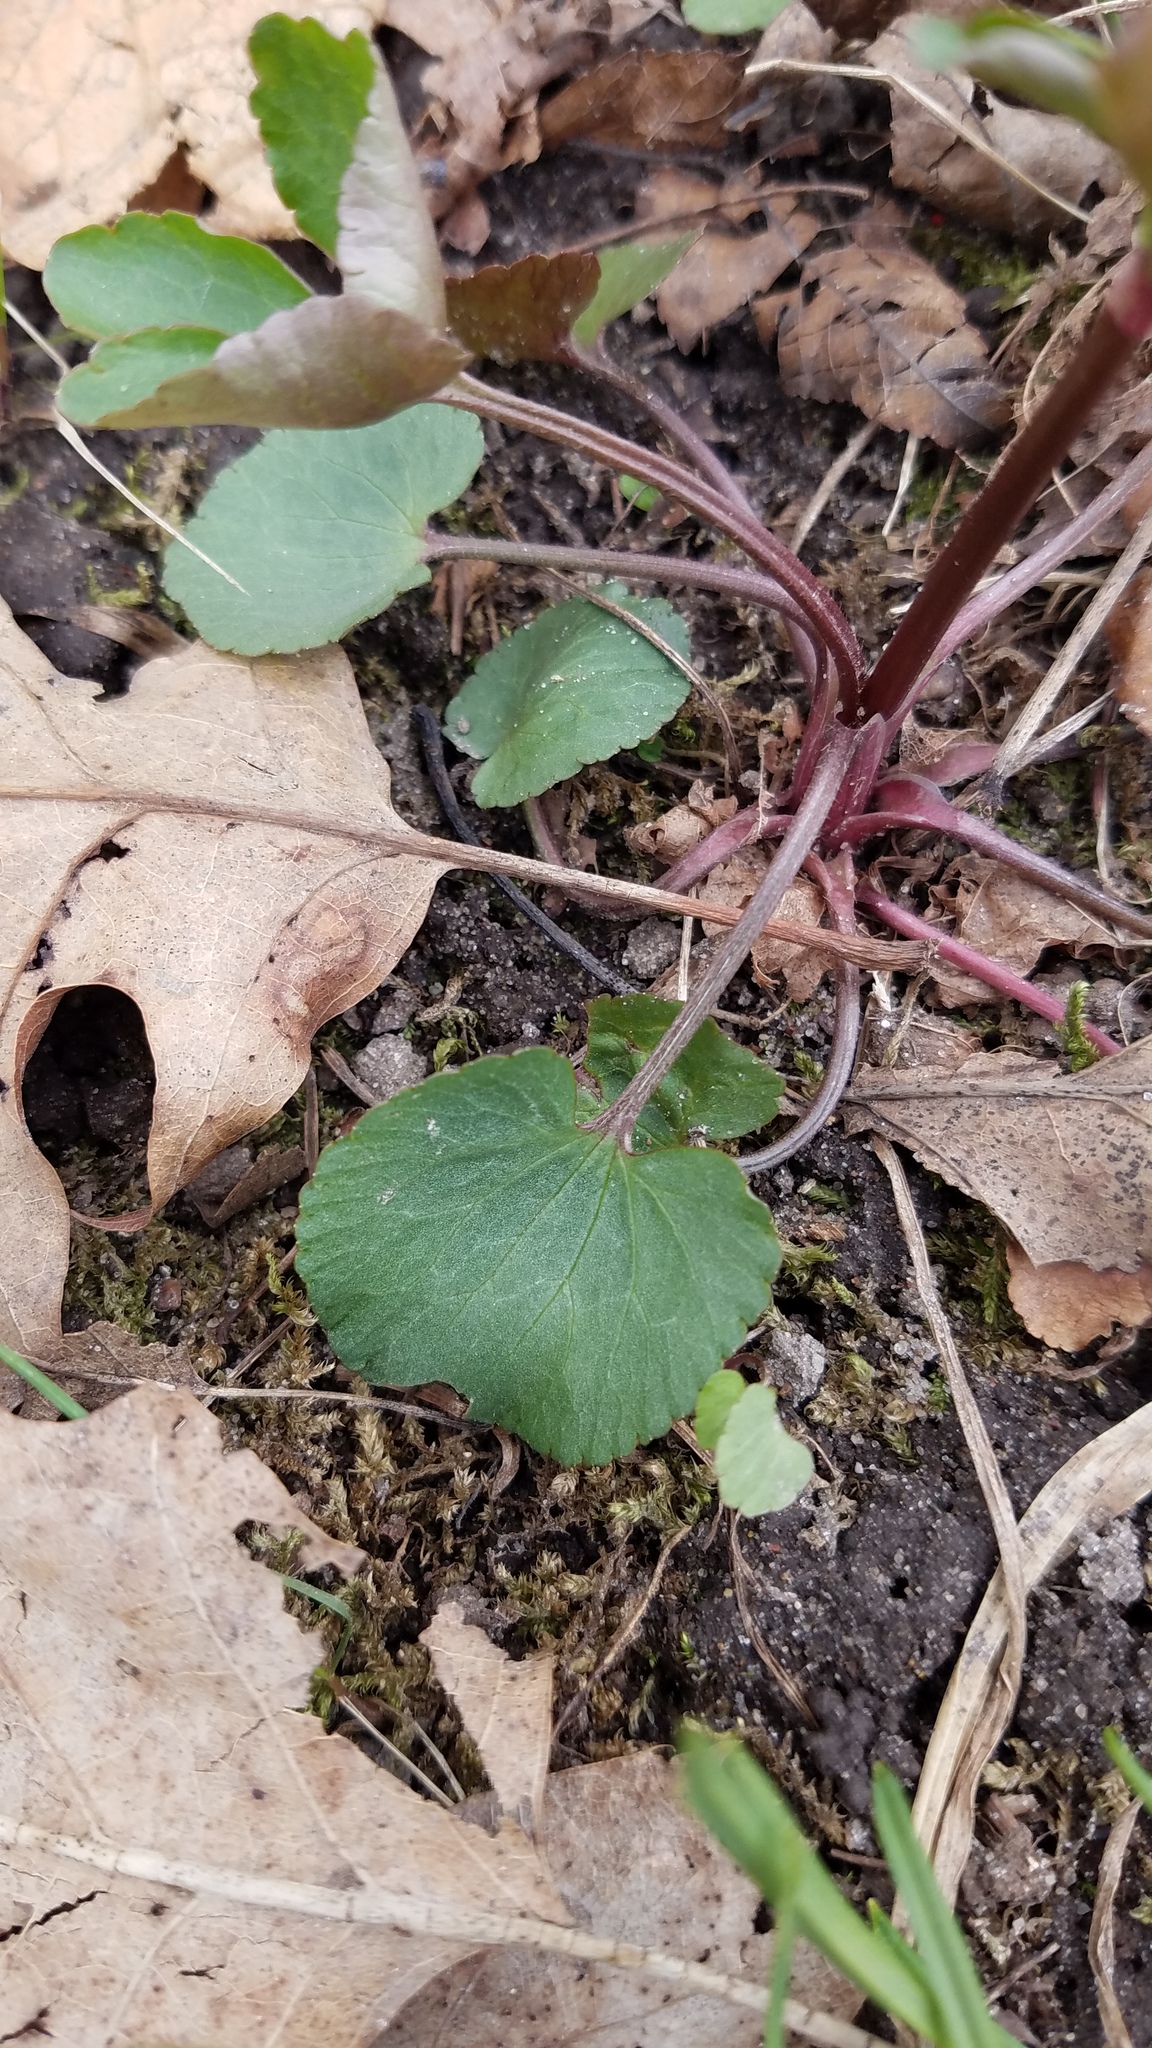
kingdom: Plantae
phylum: Tracheophyta
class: Magnoliopsida
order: Ranunculales
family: Ranunculaceae
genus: Ranunculus
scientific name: Ranunculus abortivus
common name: Early wood buttercup
